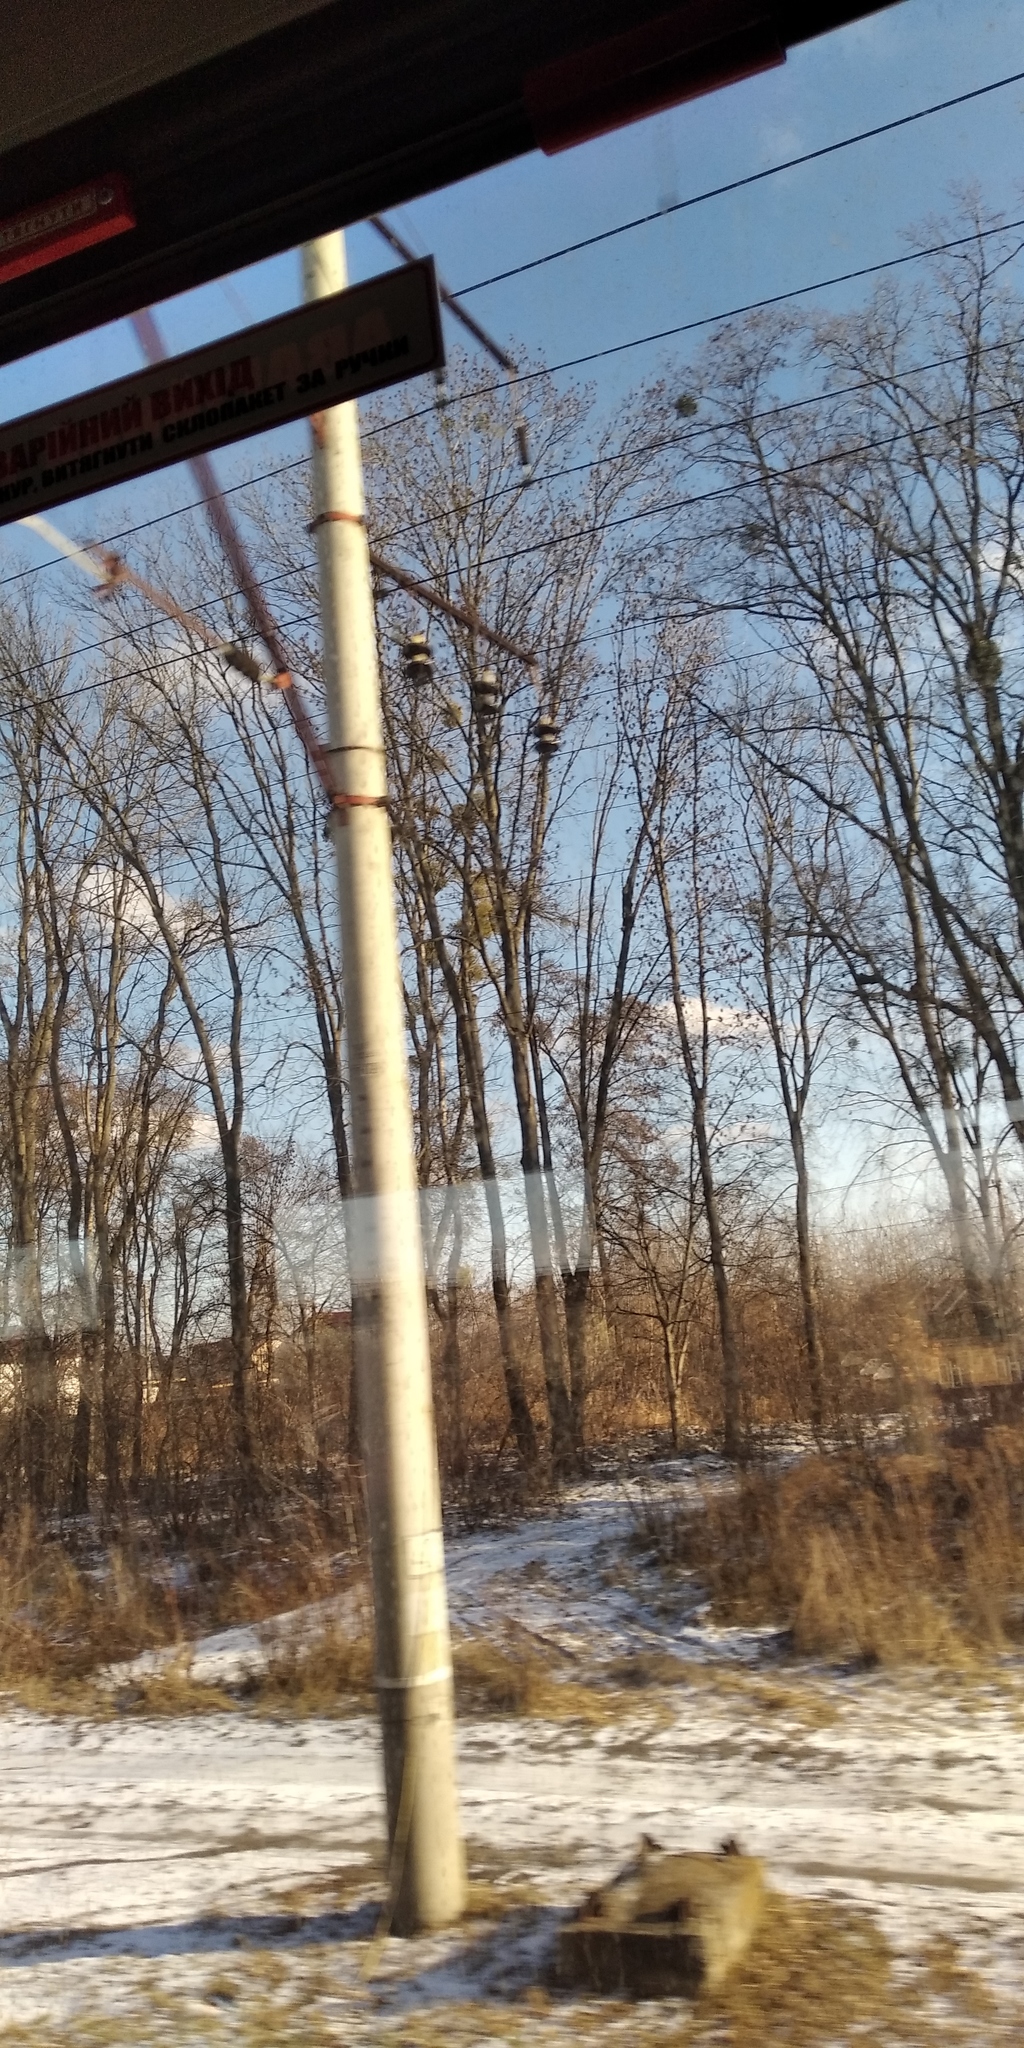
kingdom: Plantae
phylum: Tracheophyta
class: Magnoliopsida
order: Santalales
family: Viscaceae
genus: Viscum
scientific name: Viscum album
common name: Mistletoe
